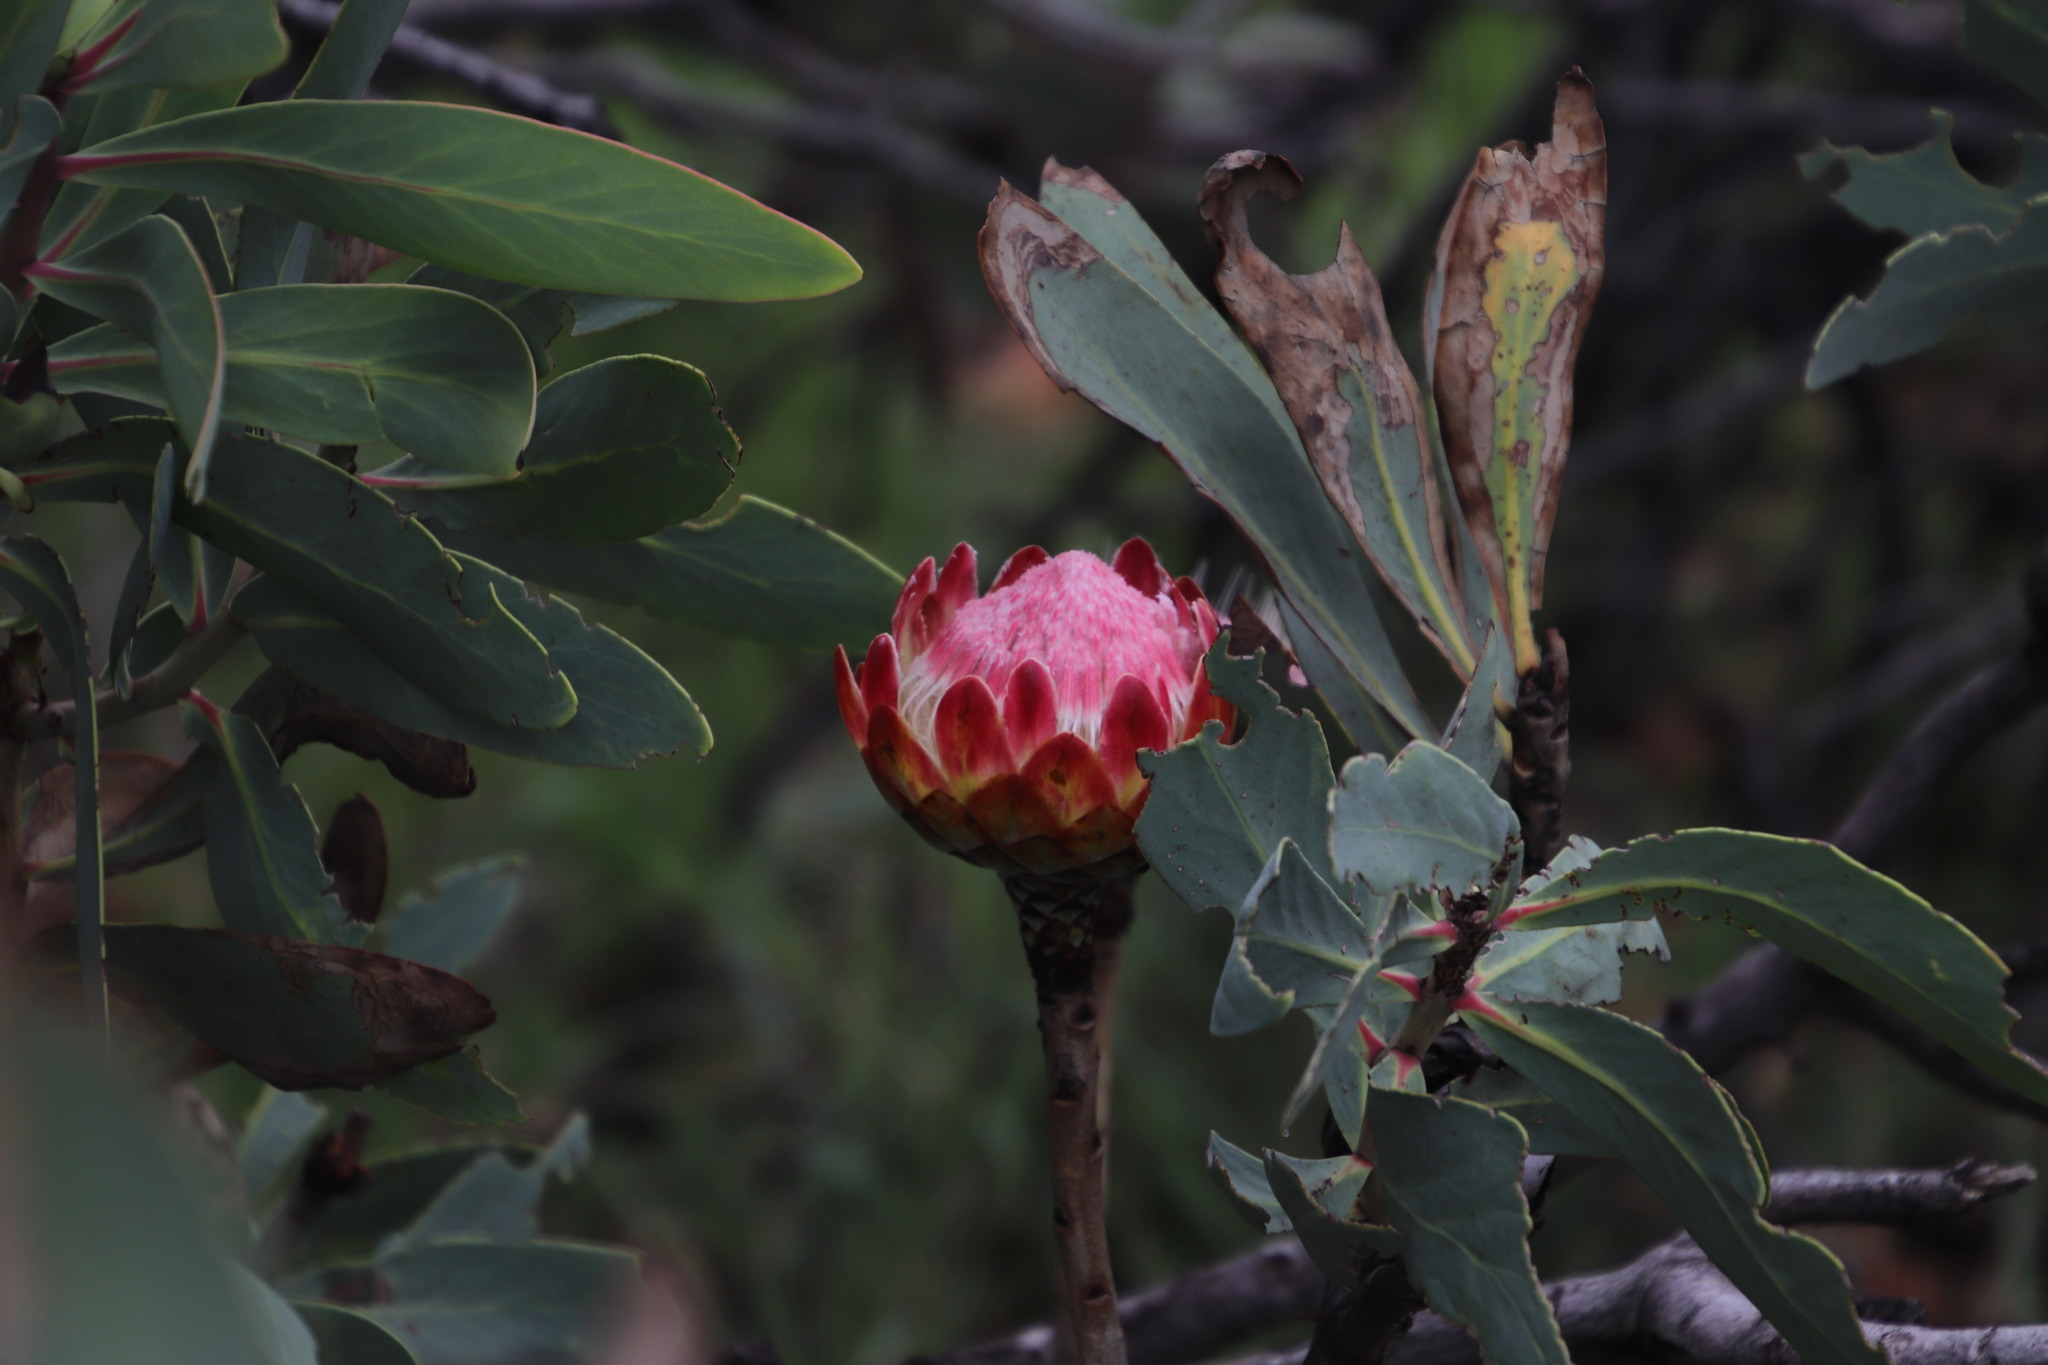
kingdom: Plantae
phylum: Tracheophyta
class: Magnoliopsida
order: Proteales
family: Proteaceae
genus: Protea
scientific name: Protea caffra
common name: Common sugarbush
